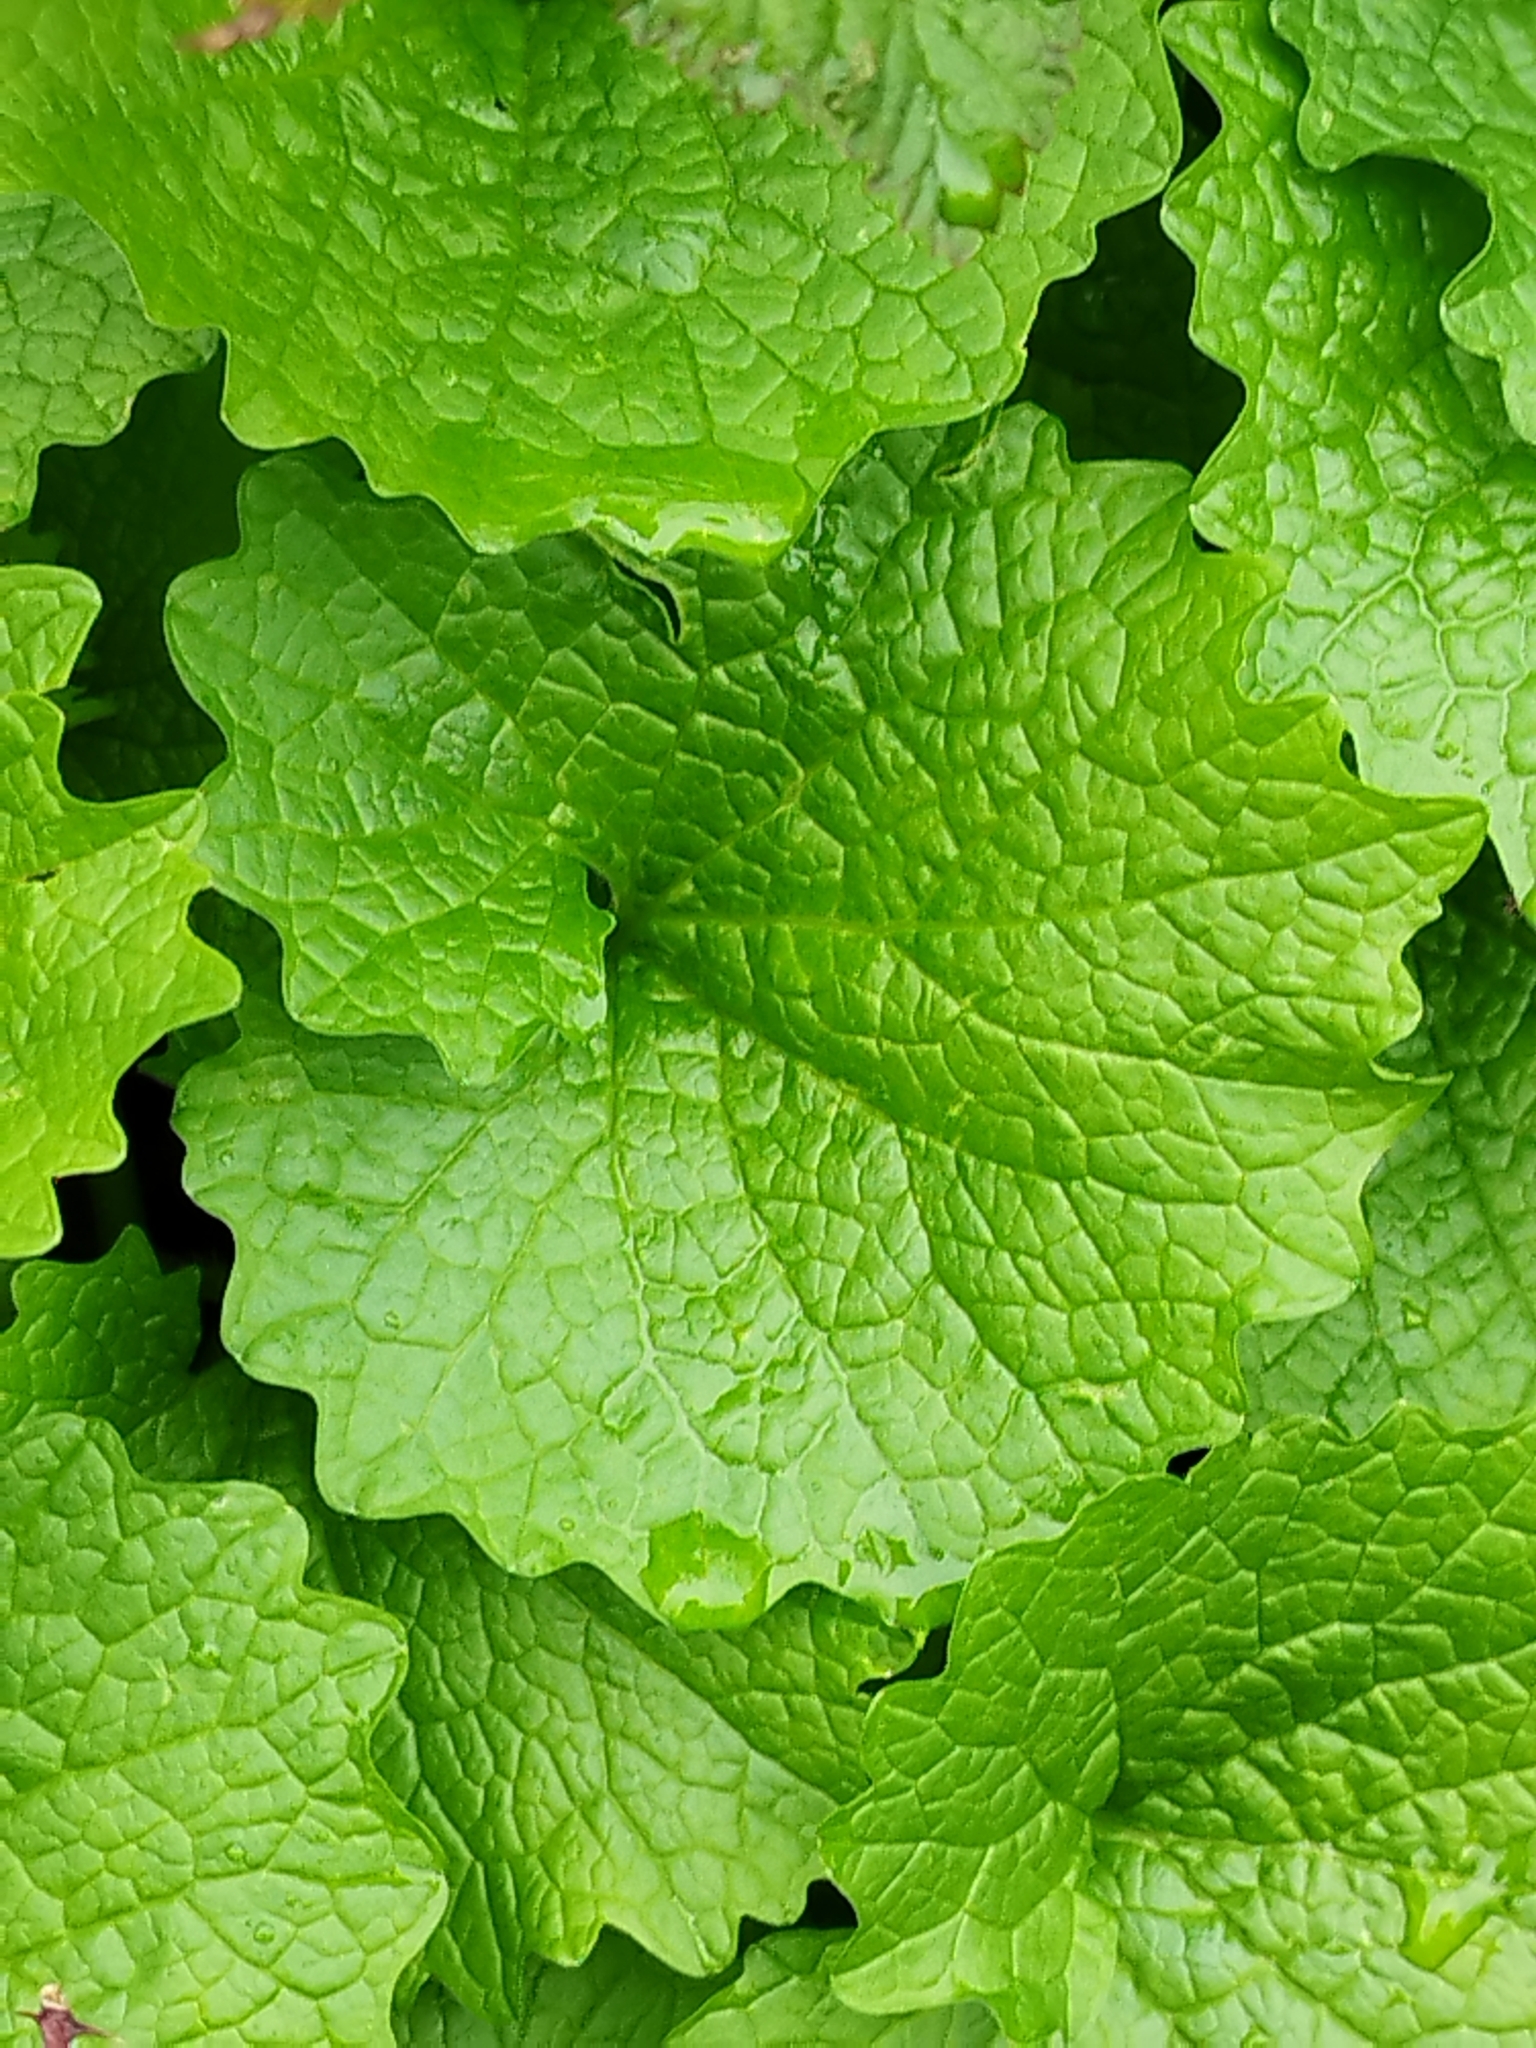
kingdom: Plantae
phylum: Tracheophyta
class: Magnoliopsida
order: Brassicales
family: Brassicaceae
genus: Alliaria
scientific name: Alliaria petiolata
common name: Garlic mustard
